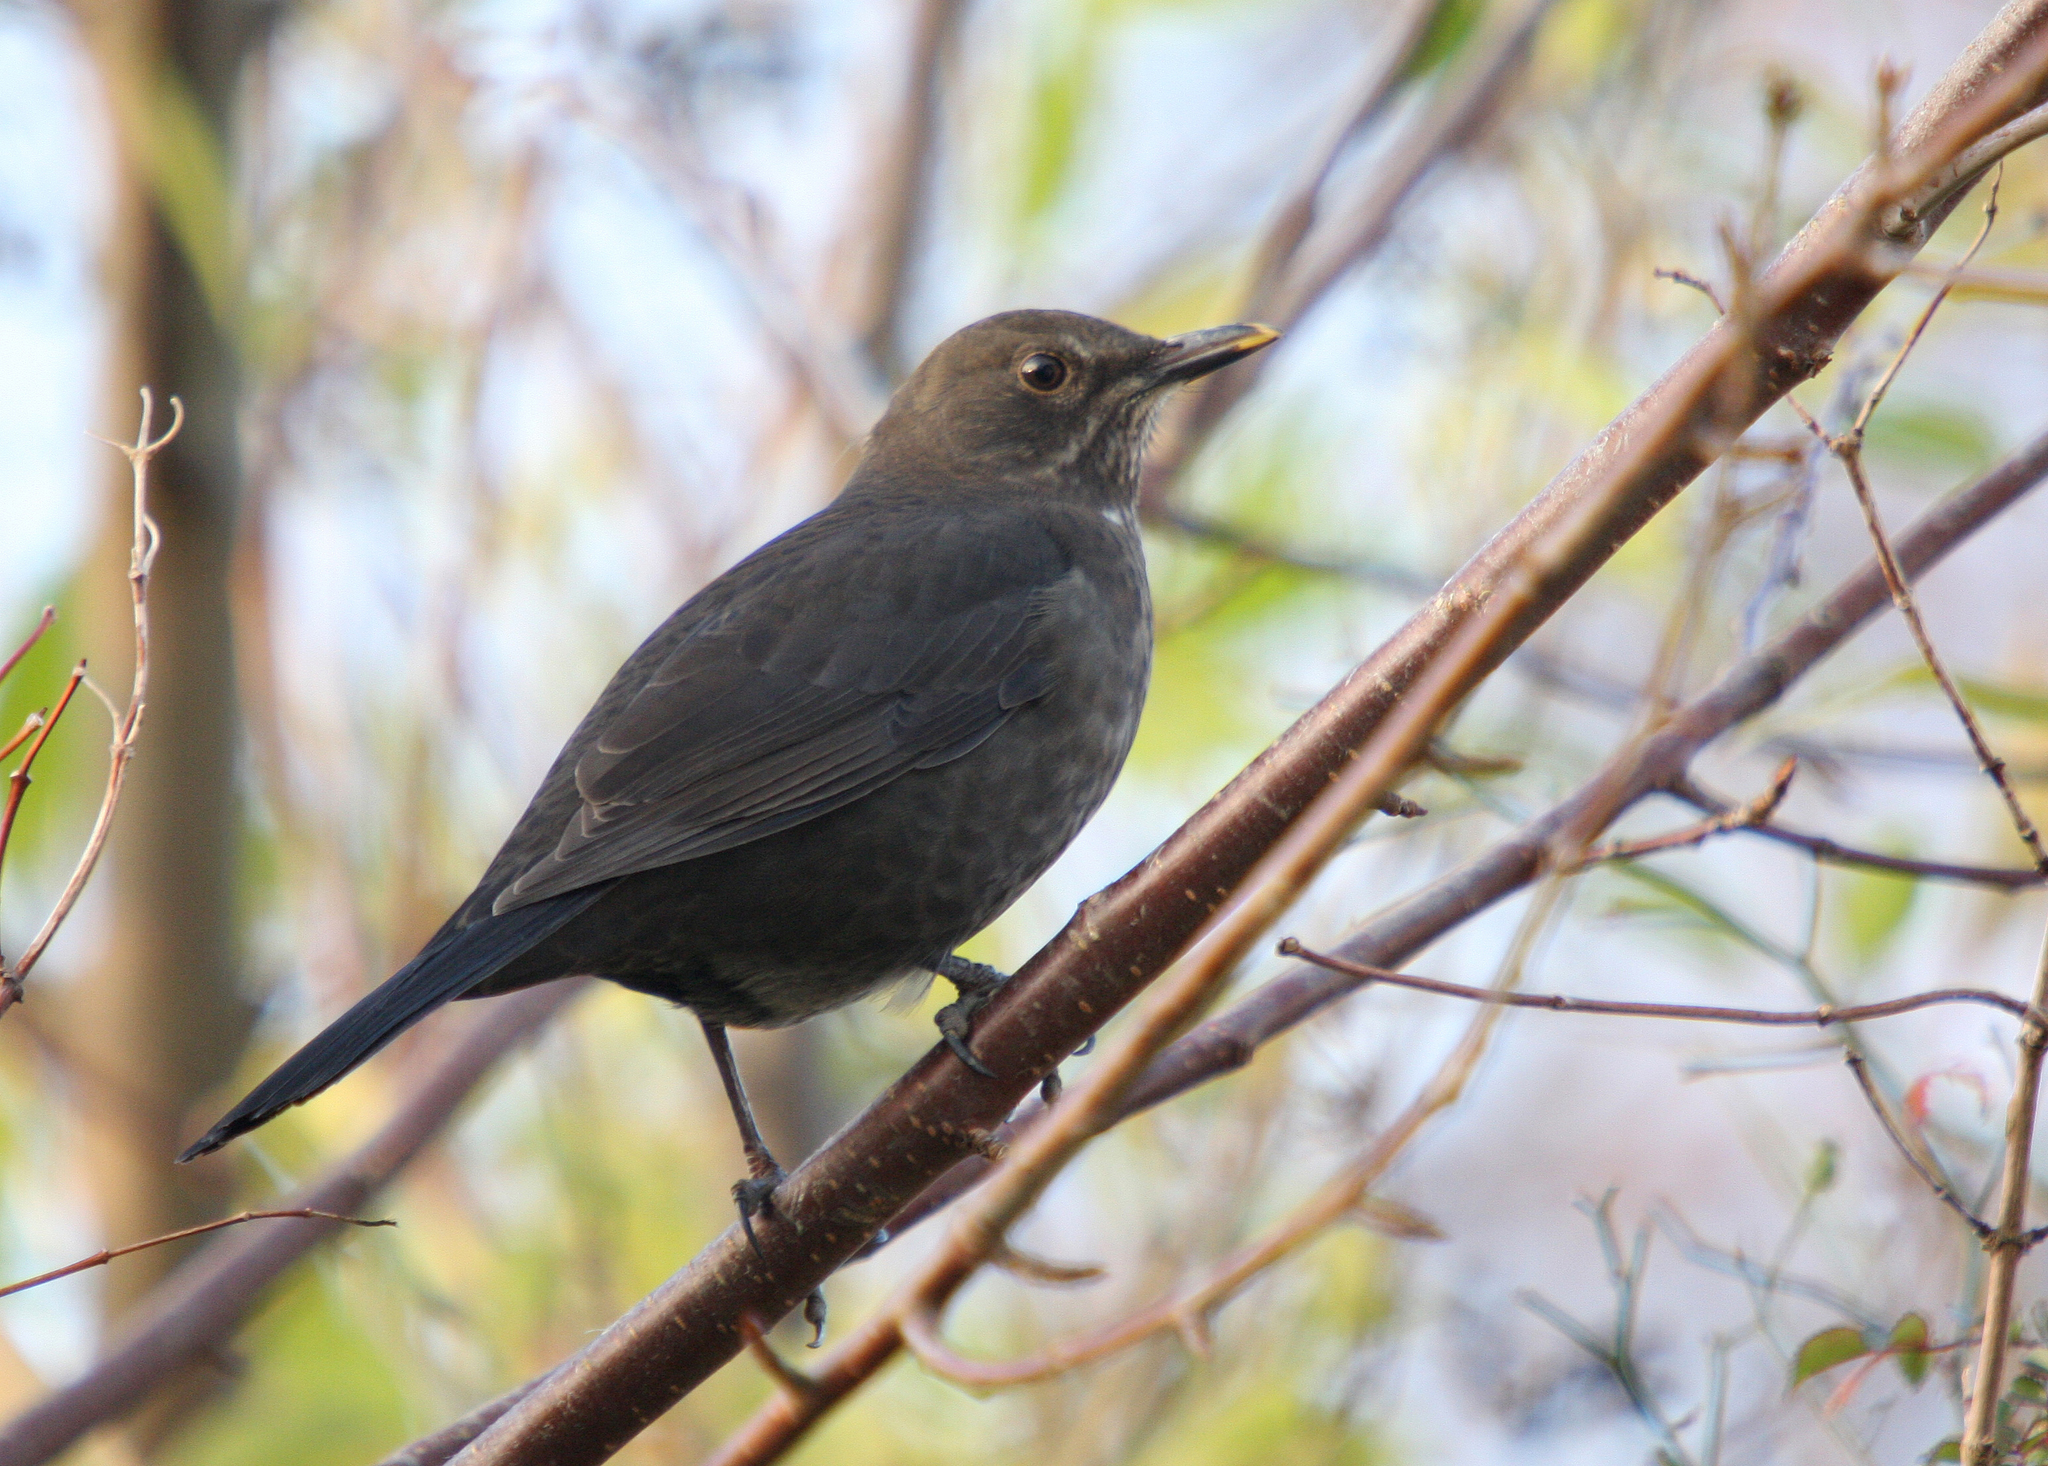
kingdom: Animalia
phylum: Chordata
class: Aves
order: Passeriformes
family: Turdidae
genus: Turdus
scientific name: Turdus merula
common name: Common blackbird
